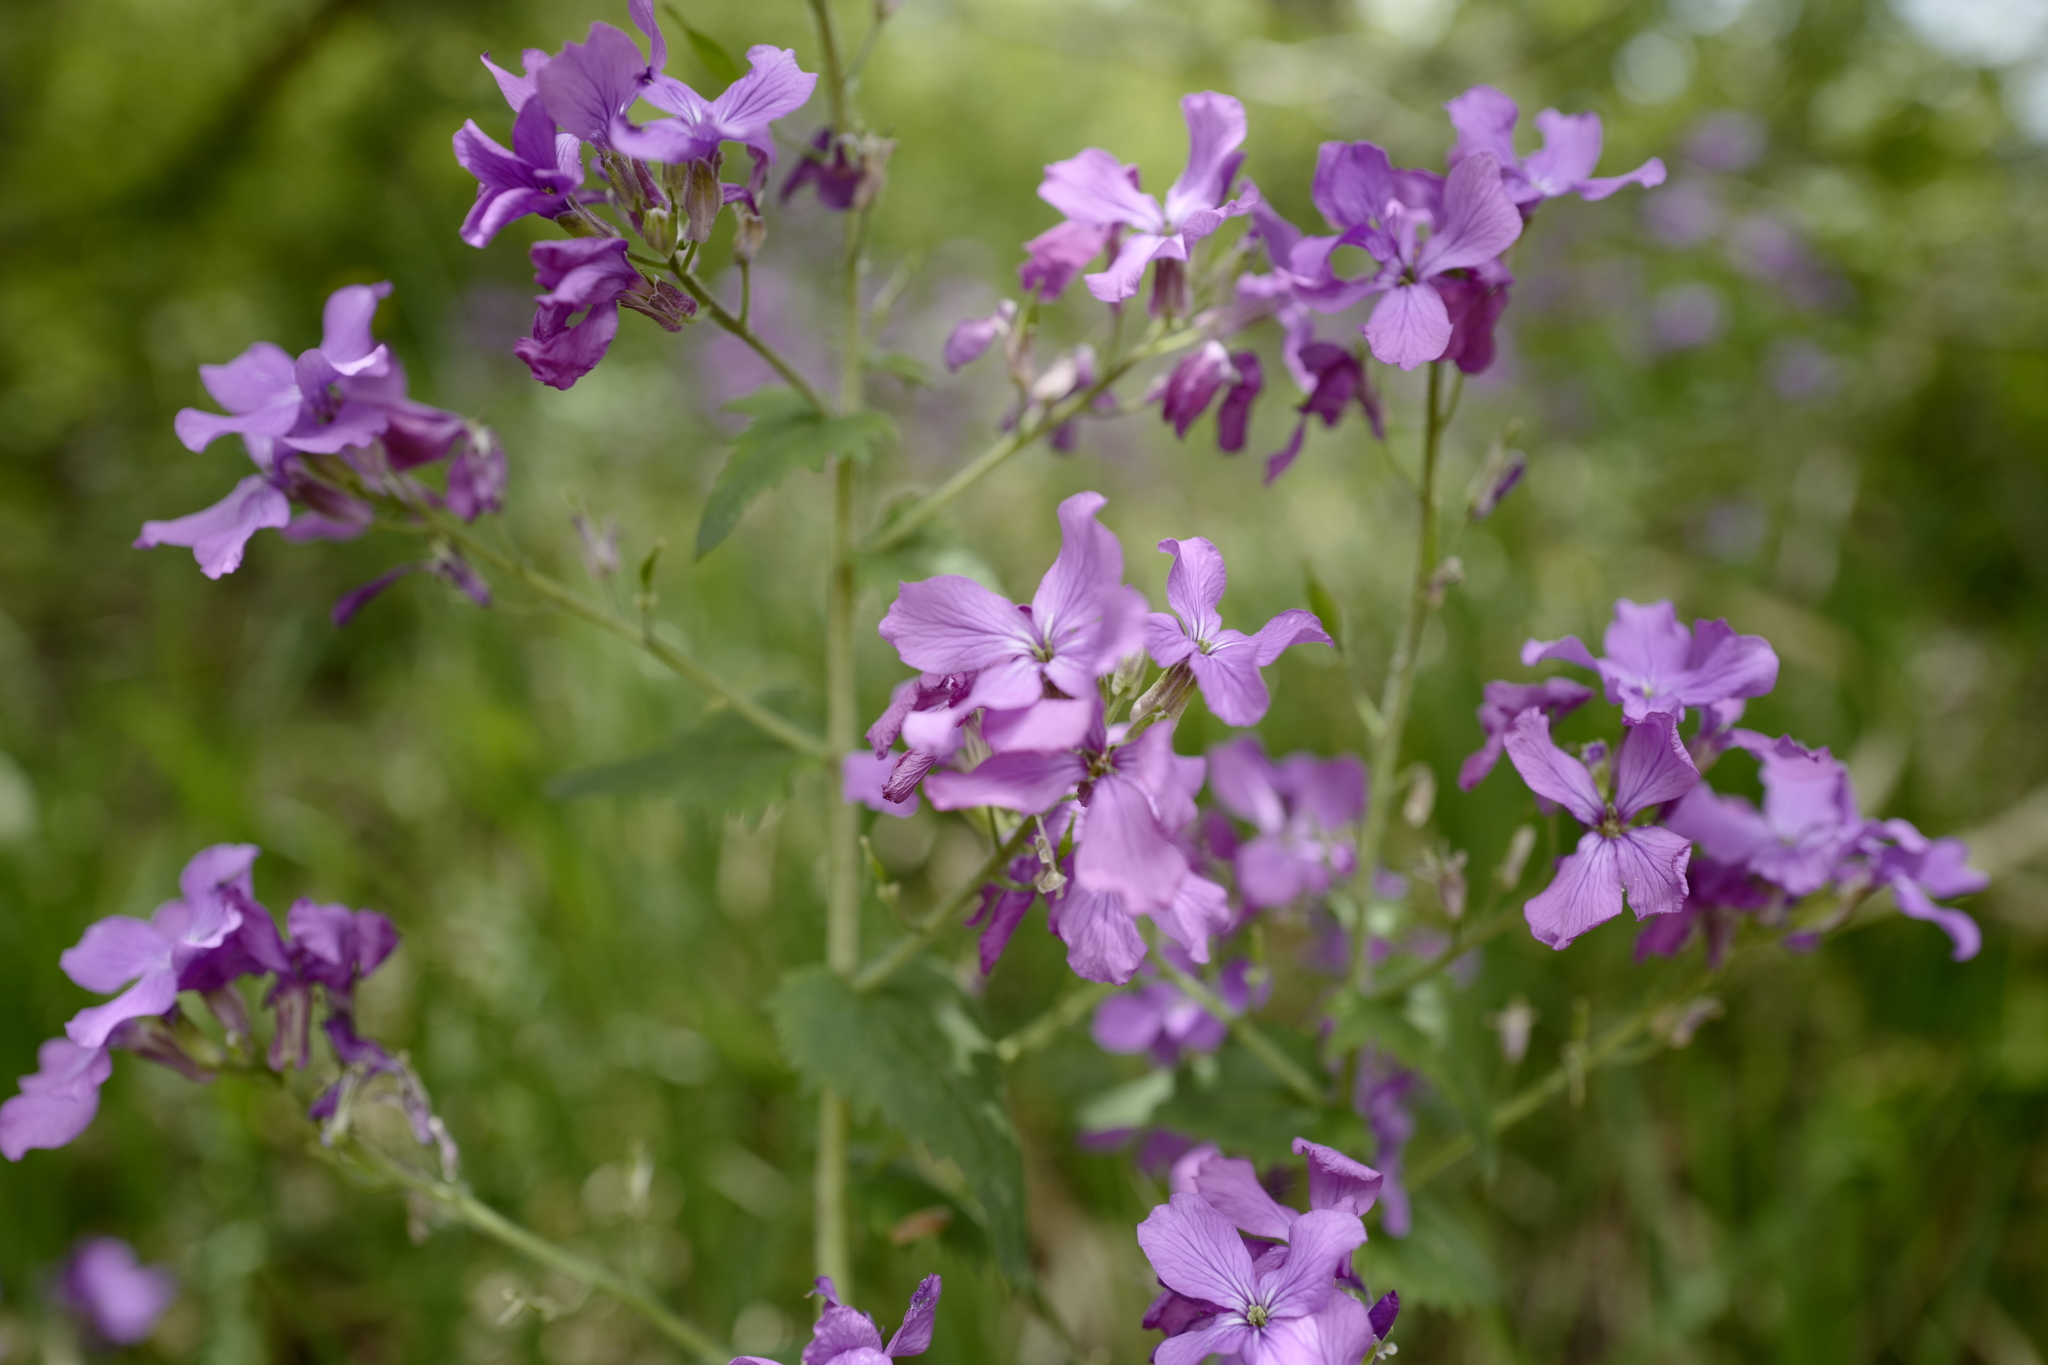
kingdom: Plantae
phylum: Tracheophyta
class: Magnoliopsida
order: Brassicales
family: Brassicaceae
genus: Lunaria
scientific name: Lunaria annua
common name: Honesty
